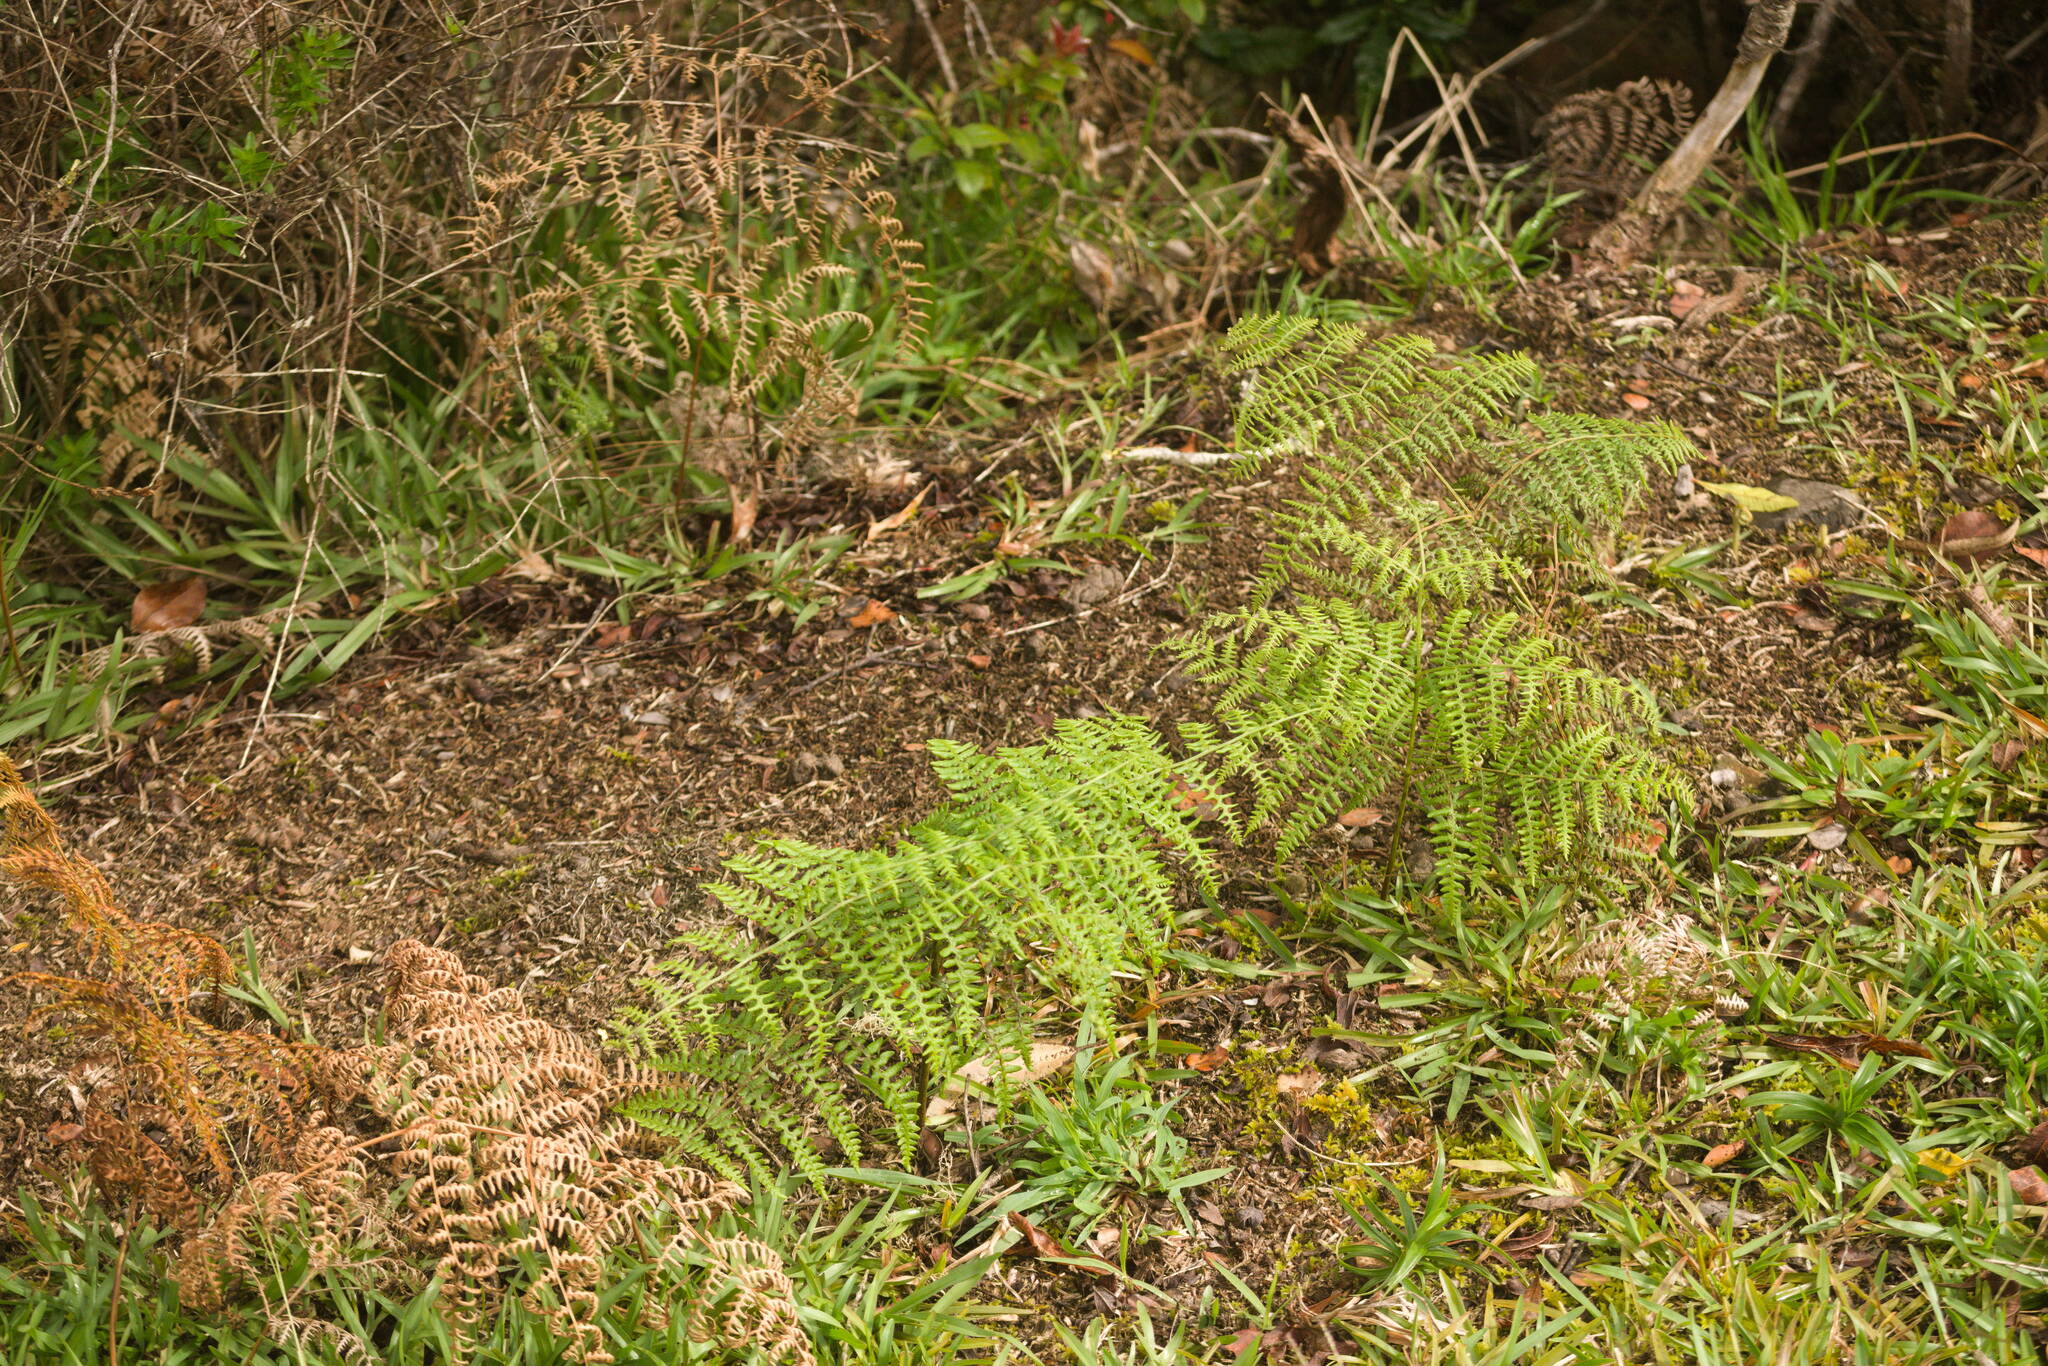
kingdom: Plantae
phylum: Tracheophyta
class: Polypodiopsida
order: Polypodiales
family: Dennstaedtiaceae
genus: Pteridium
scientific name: Pteridium aquilinum
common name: Bracken
